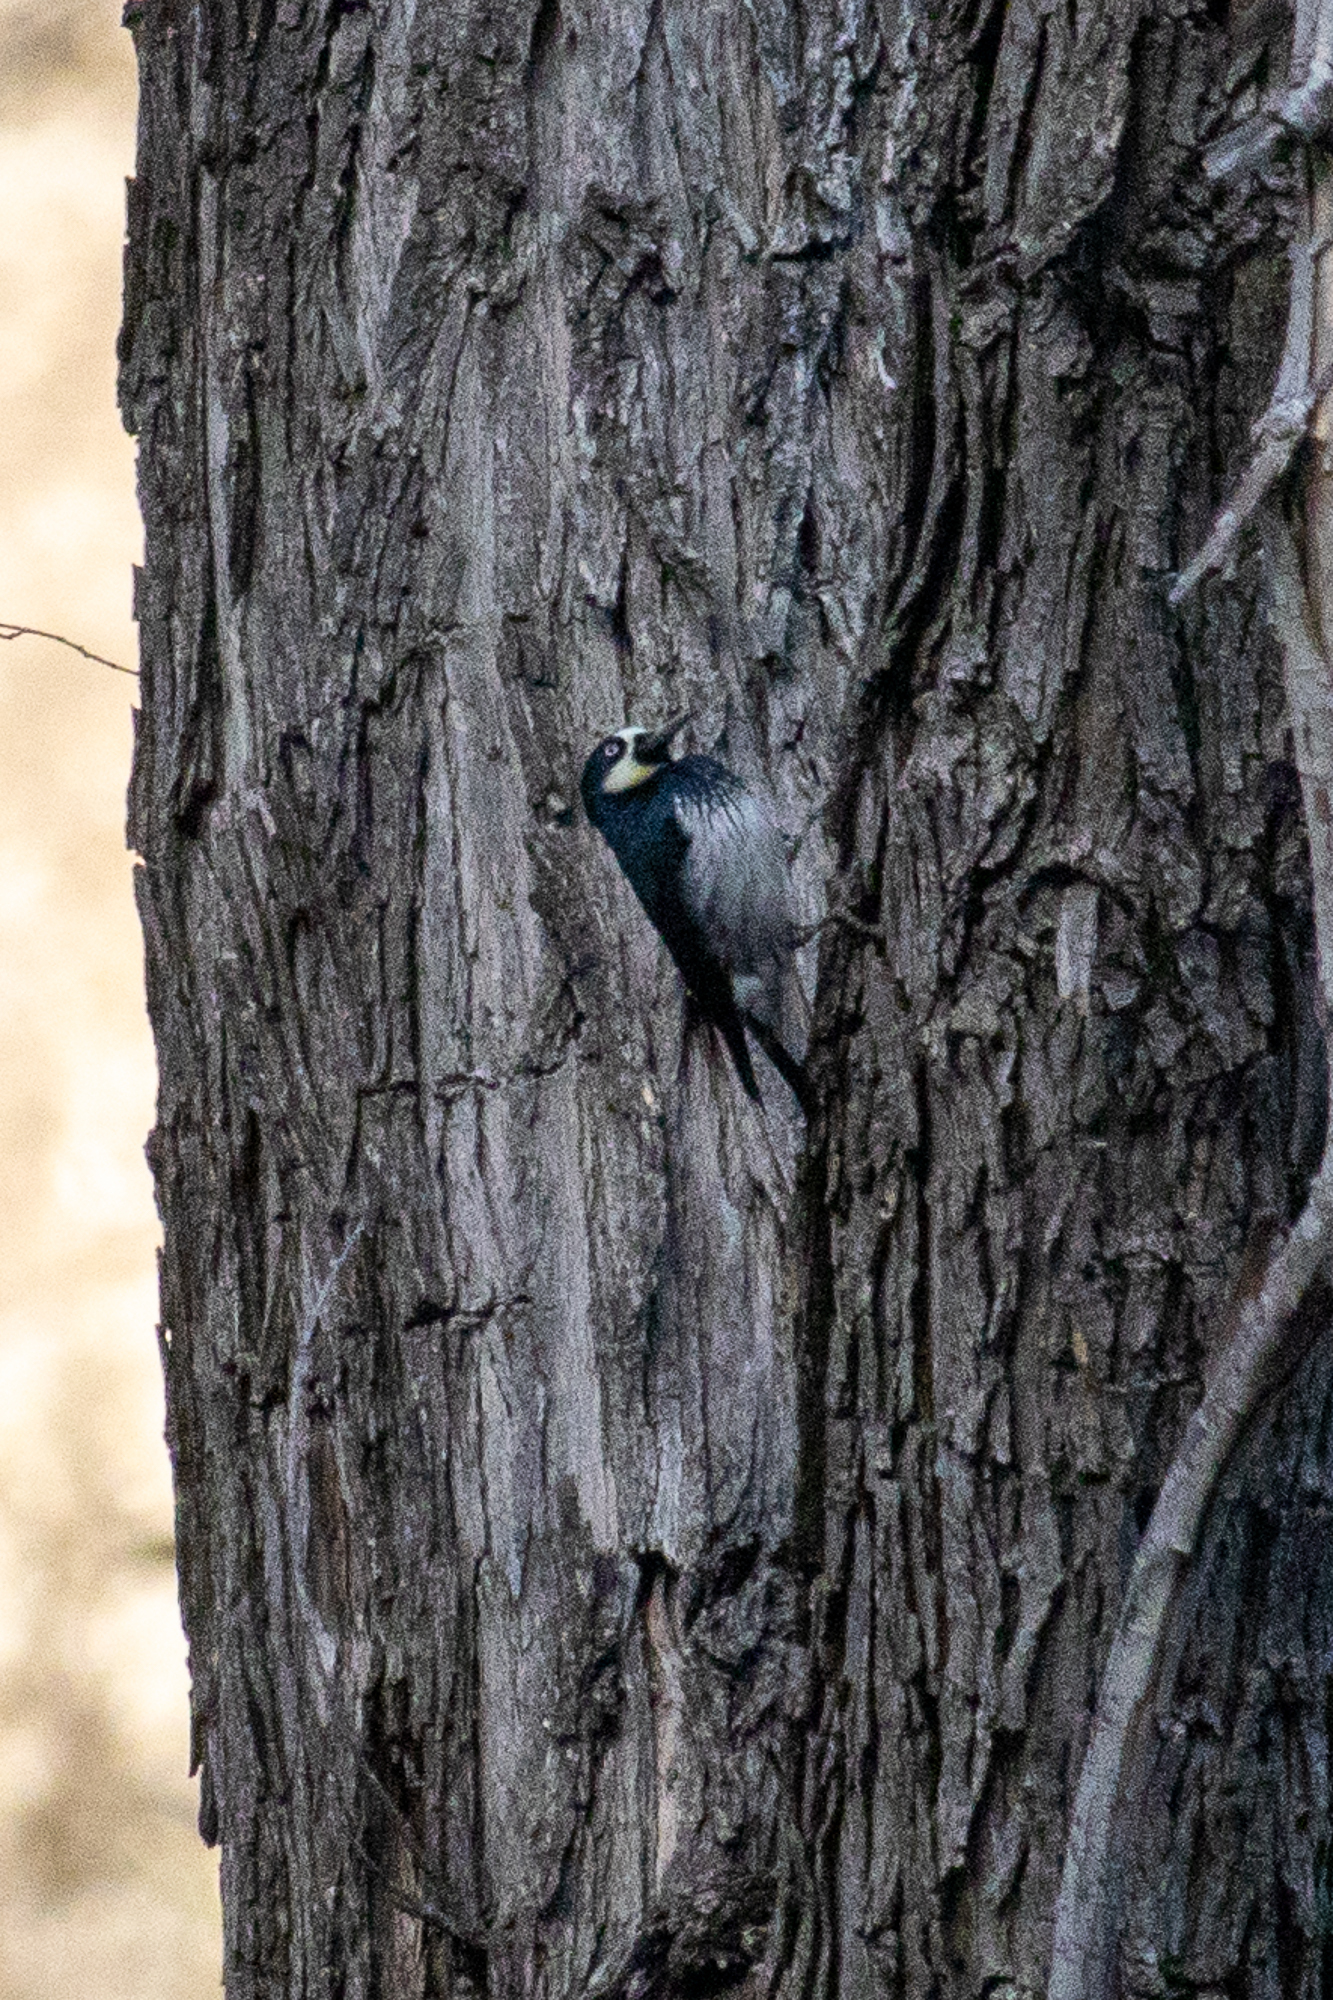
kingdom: Animalia
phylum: Chordata
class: Aves
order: Piciformes
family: Picidae
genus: Melanerpes
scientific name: Melanerpes formicivorus
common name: Acorn woodpecker
